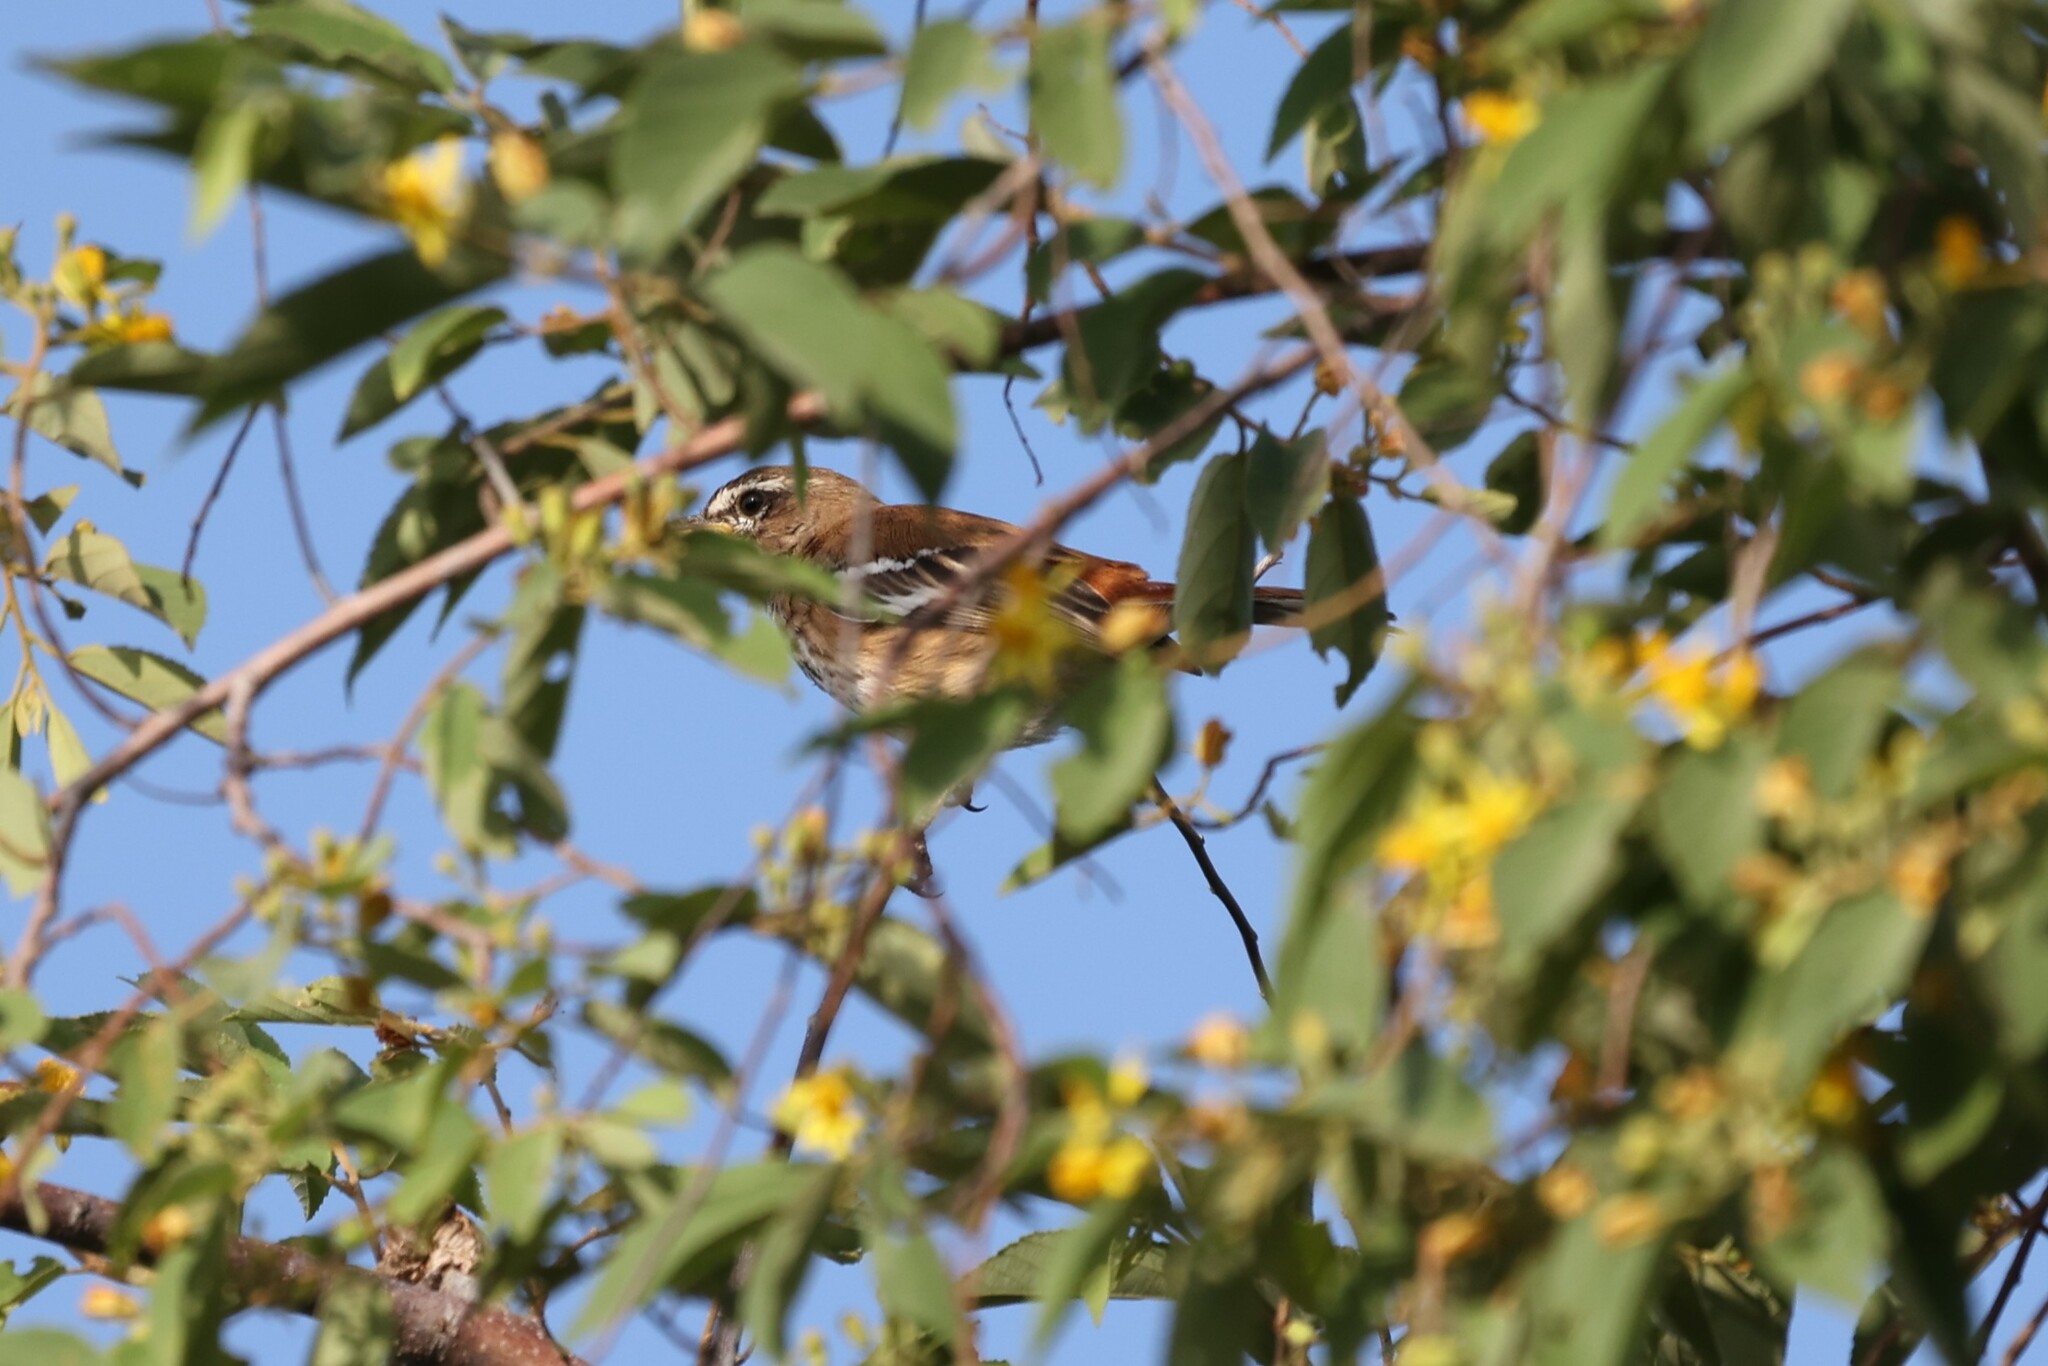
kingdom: Animalia
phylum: Chordata
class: Aves
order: Passeriformes
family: Muscicapidae
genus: Erythropygia
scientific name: Erythropygia leucophrys
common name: White-browed scrub robin
